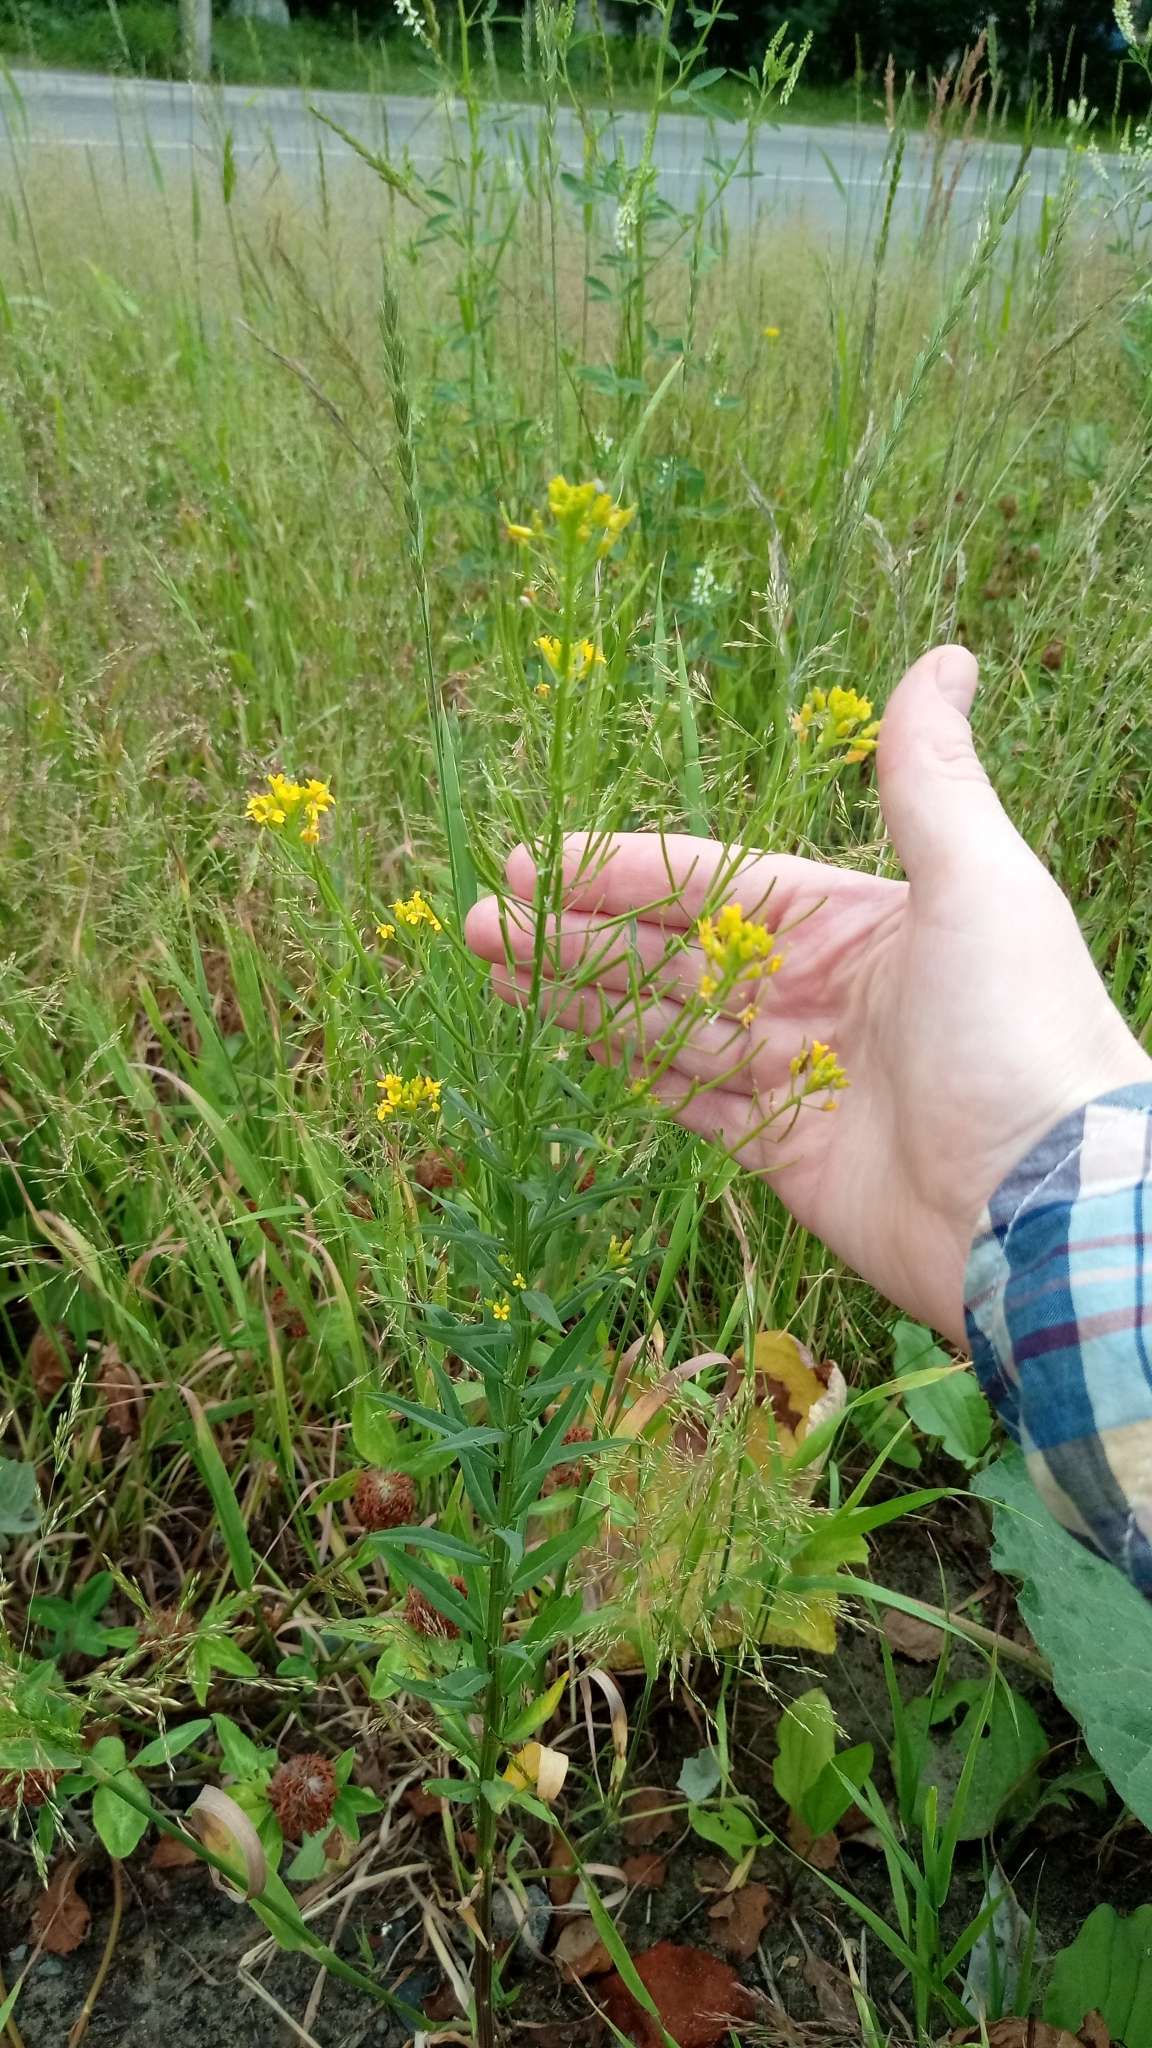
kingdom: Plantae
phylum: Tracheophyta
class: Magnoliopsida
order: Brassicales
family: Brassicaceae
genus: Erysimum
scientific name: Erysimum cheiranthoides
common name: Treacle mustard
